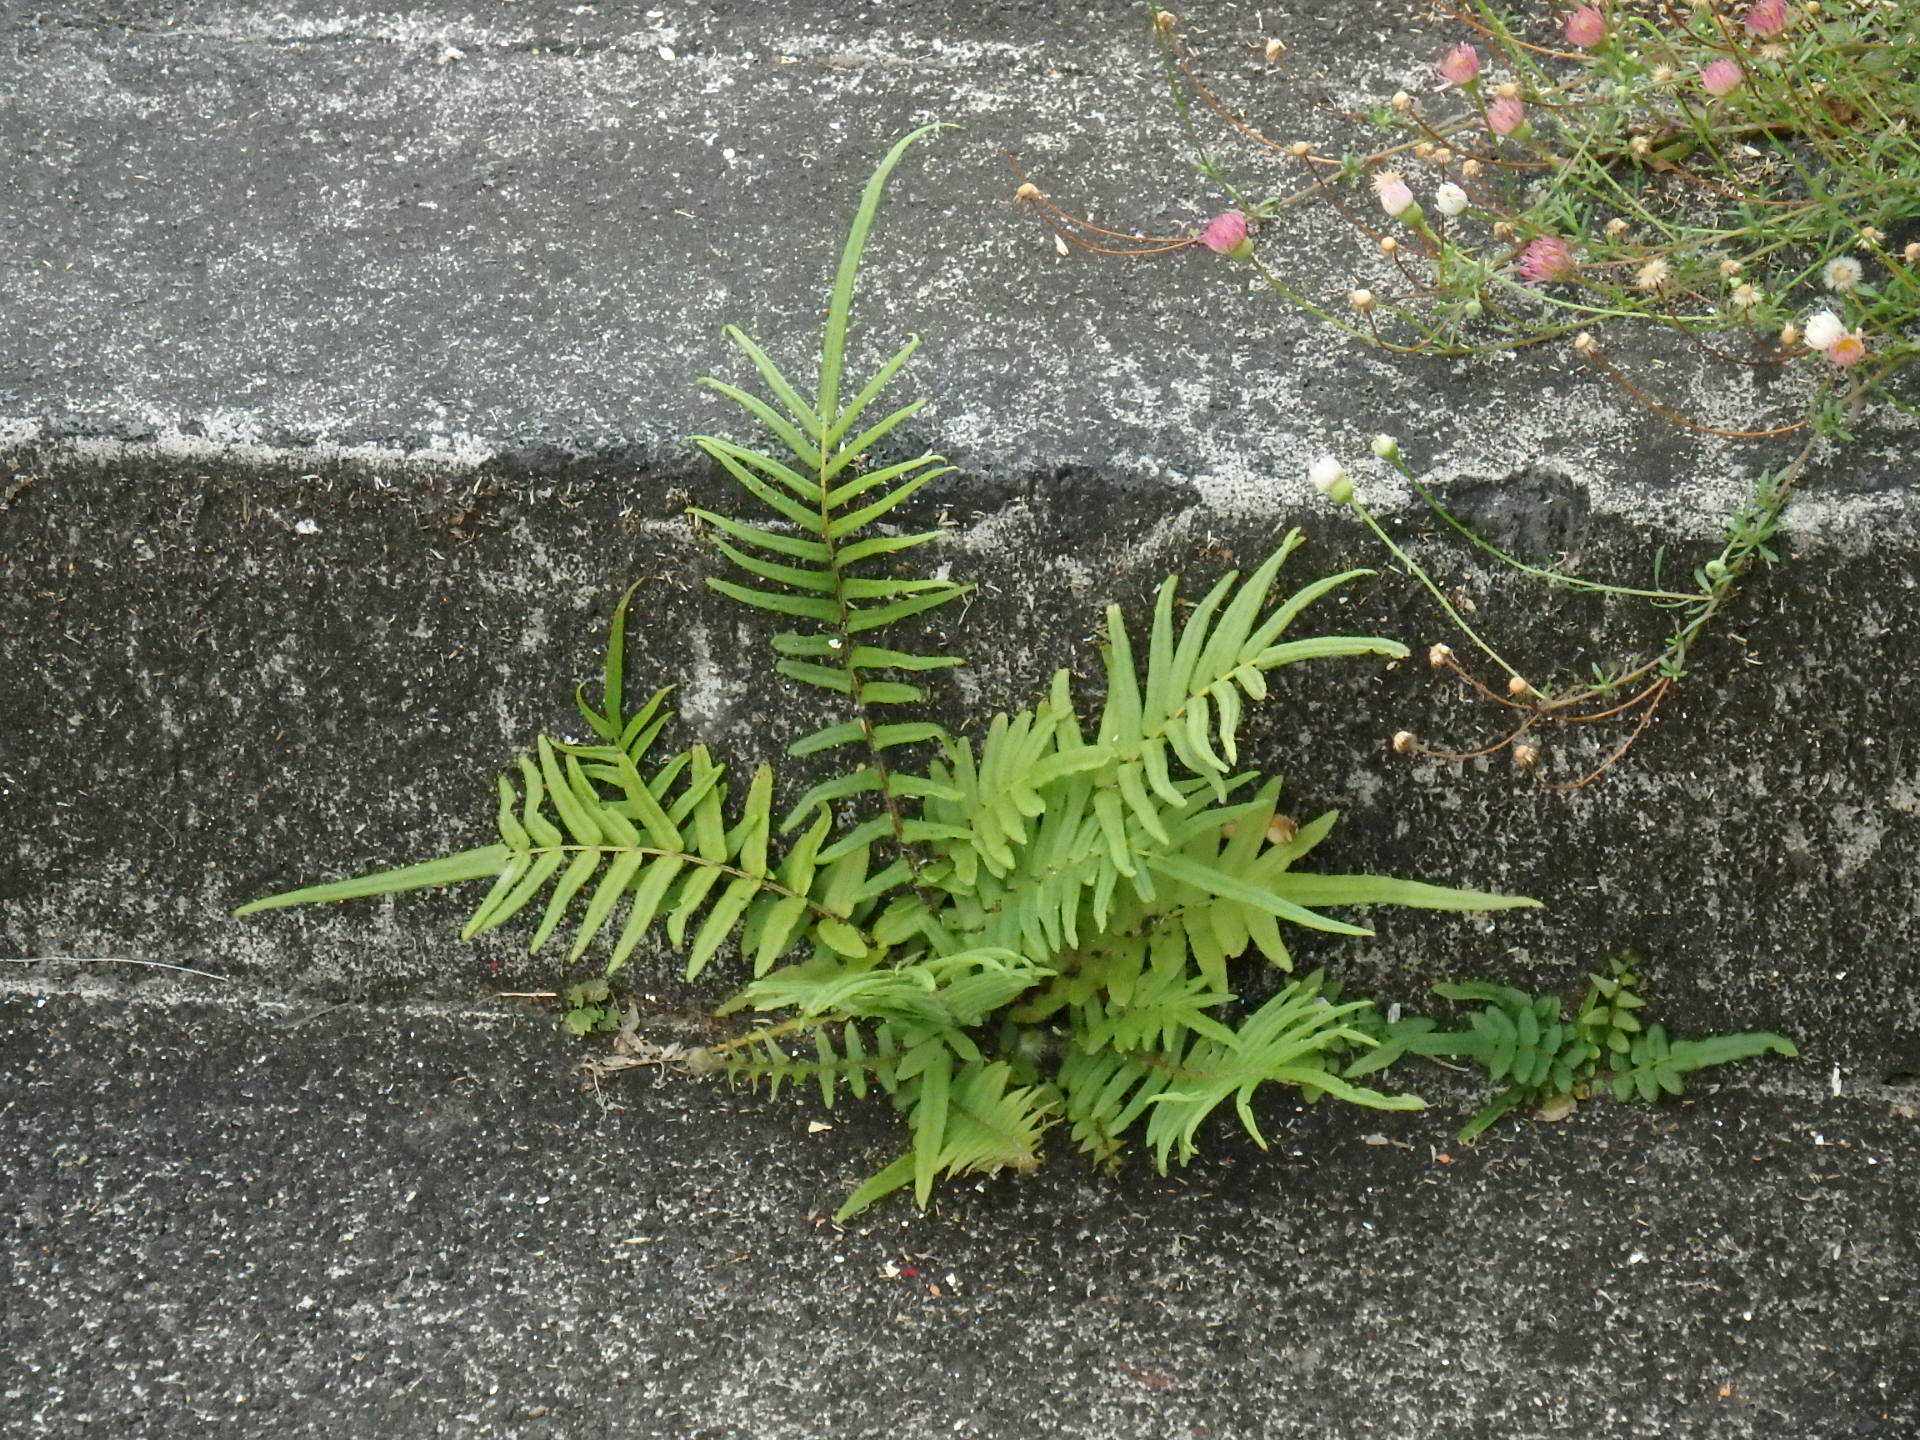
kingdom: Plantae
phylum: Tracheophyta
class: Polypodiopsida
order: Polypodiales
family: Pteridaceae
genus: Pteris
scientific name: Pteris vittata
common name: Ladder brake
